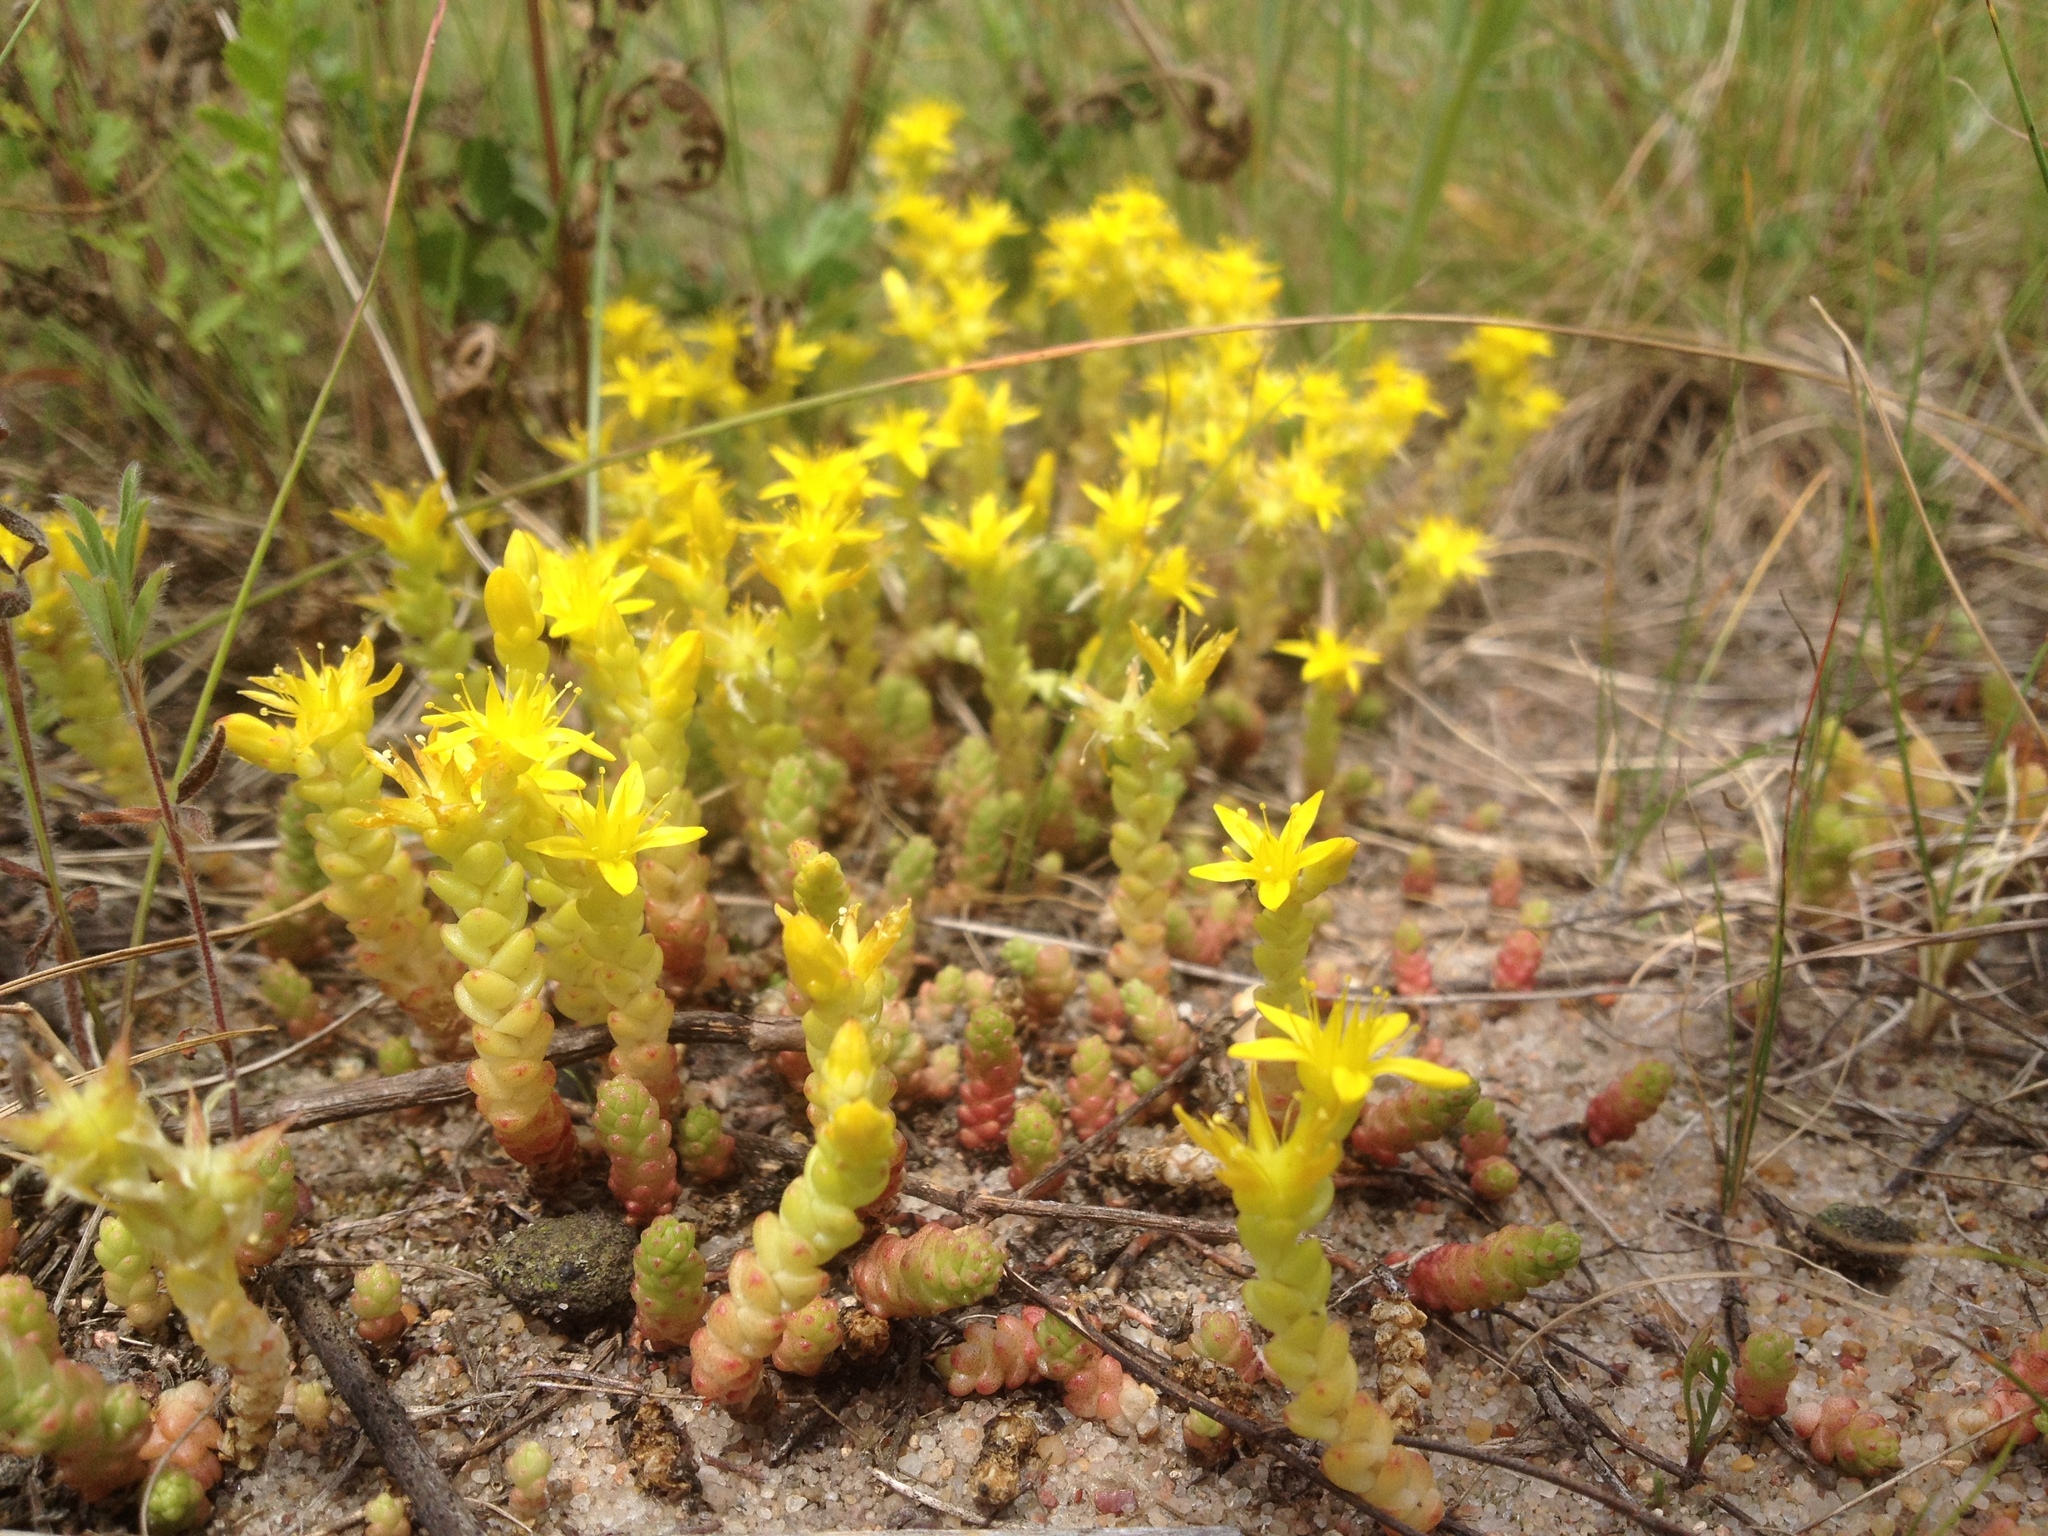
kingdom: Plantae
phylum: Tracheophyta
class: Magnoliopsida
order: Saxifragales
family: Crassulaceae
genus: Sedum
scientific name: Sedum acre
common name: Biting stonecrop
